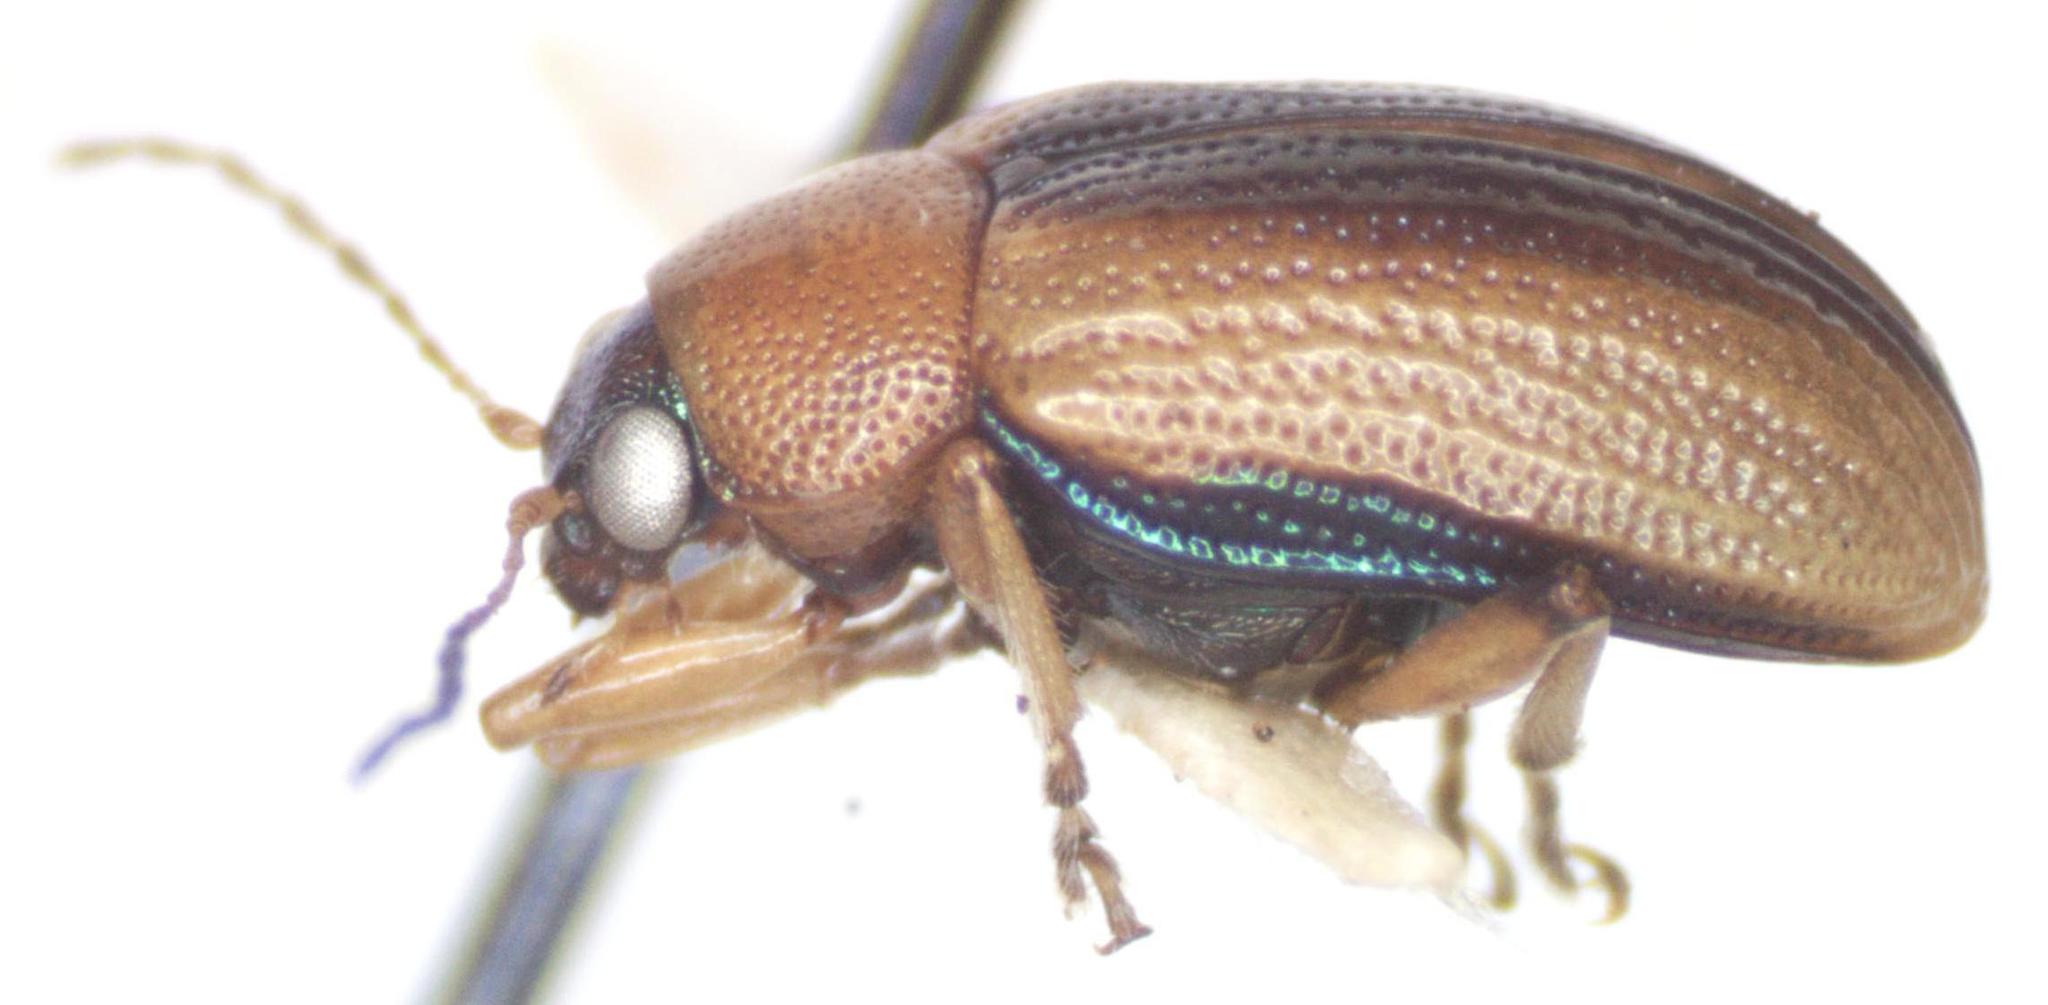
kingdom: Animalia
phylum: Arthropoda
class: Insecta
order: Coleoptera
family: Chrysomelidae
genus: Deuteronoda
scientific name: Deuteronoda
